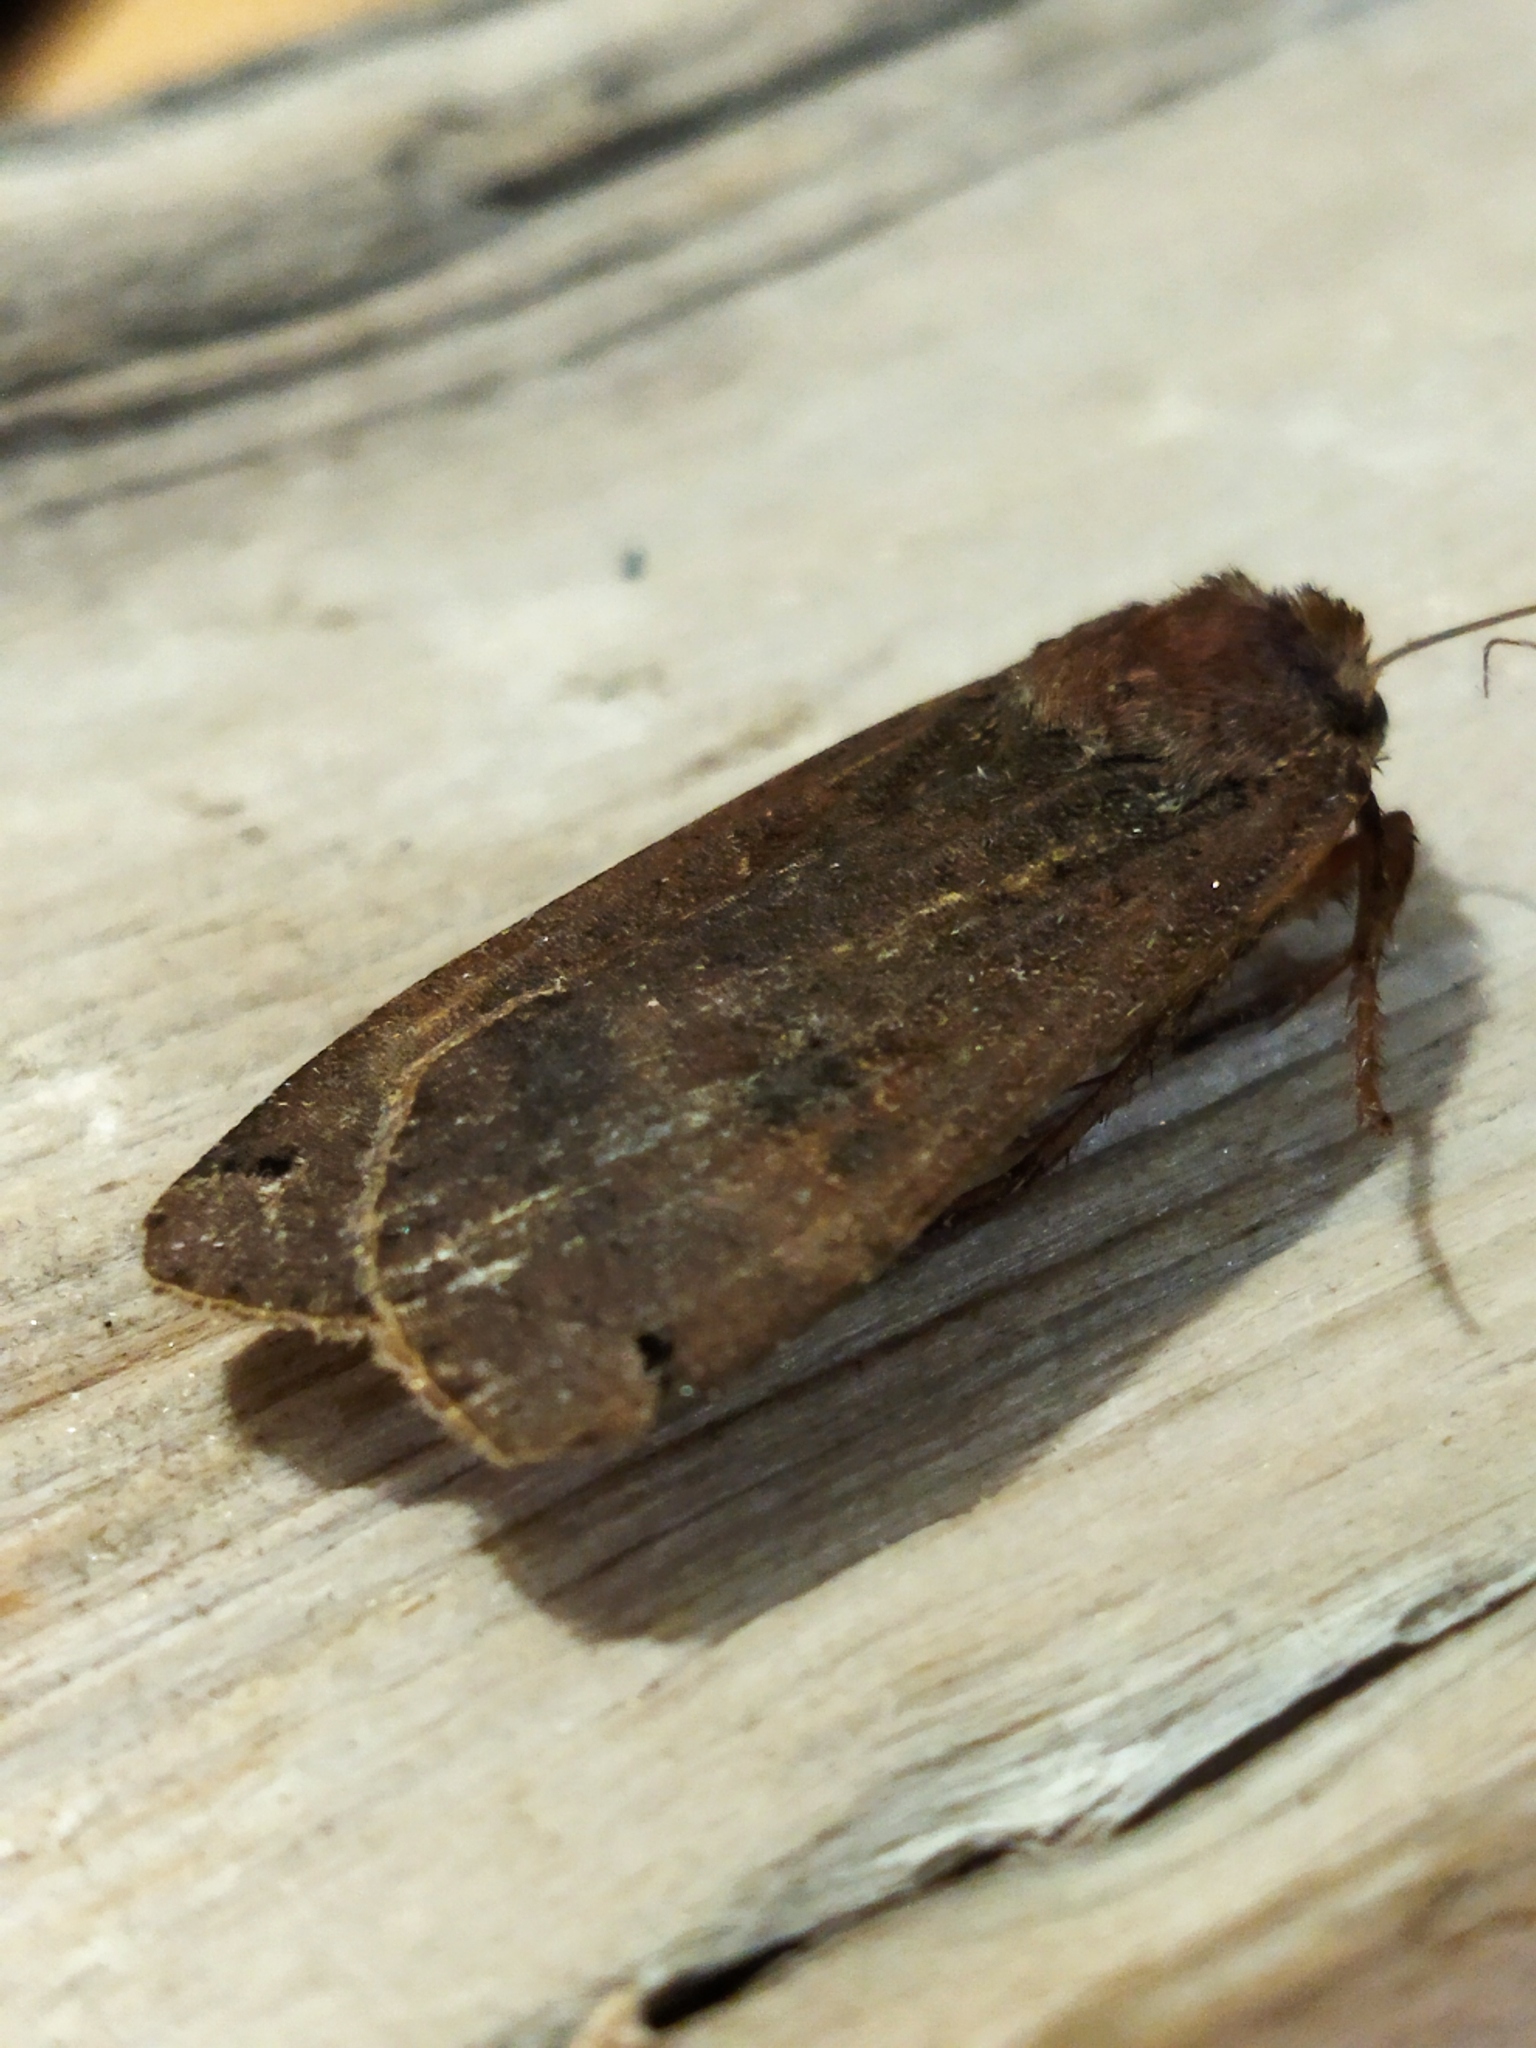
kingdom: Animalia
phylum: Arthropoda
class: Insecta
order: Lepidoptera
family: Noctuidae
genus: Noctua
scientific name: Noctua pronuba
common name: Large yellow underwing
